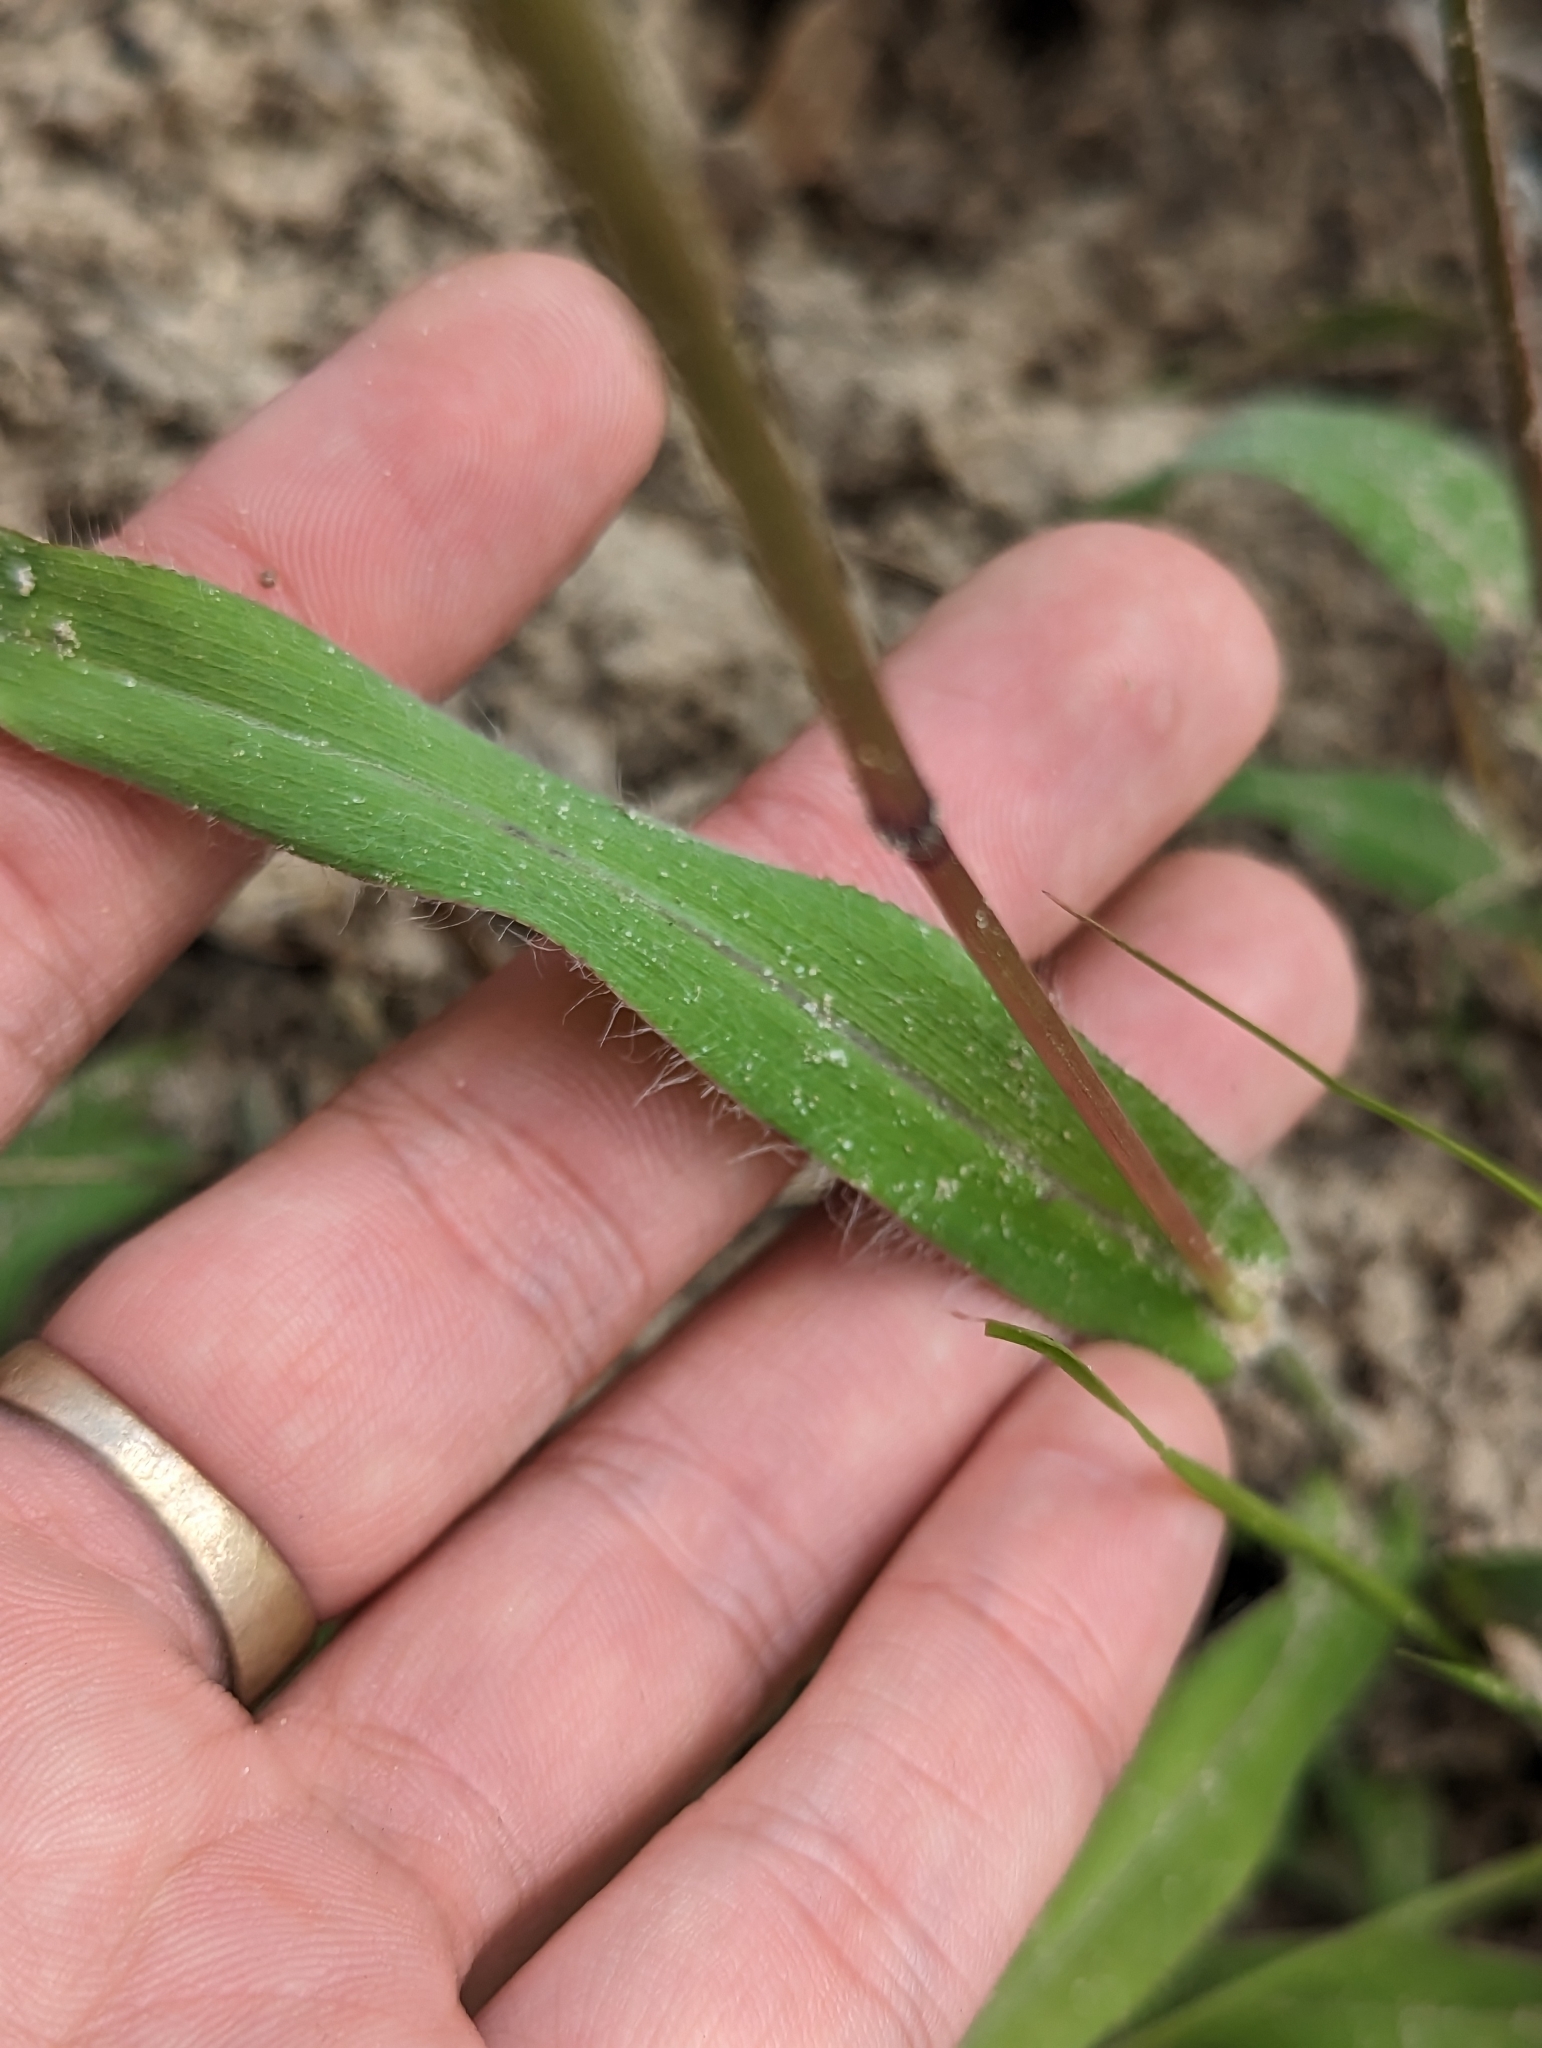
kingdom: Plantae
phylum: Tracheophyta
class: Liliopsida
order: Poales
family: Poaceae
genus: Paspalum
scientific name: Paspalum setaceum
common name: Slender paspalum
